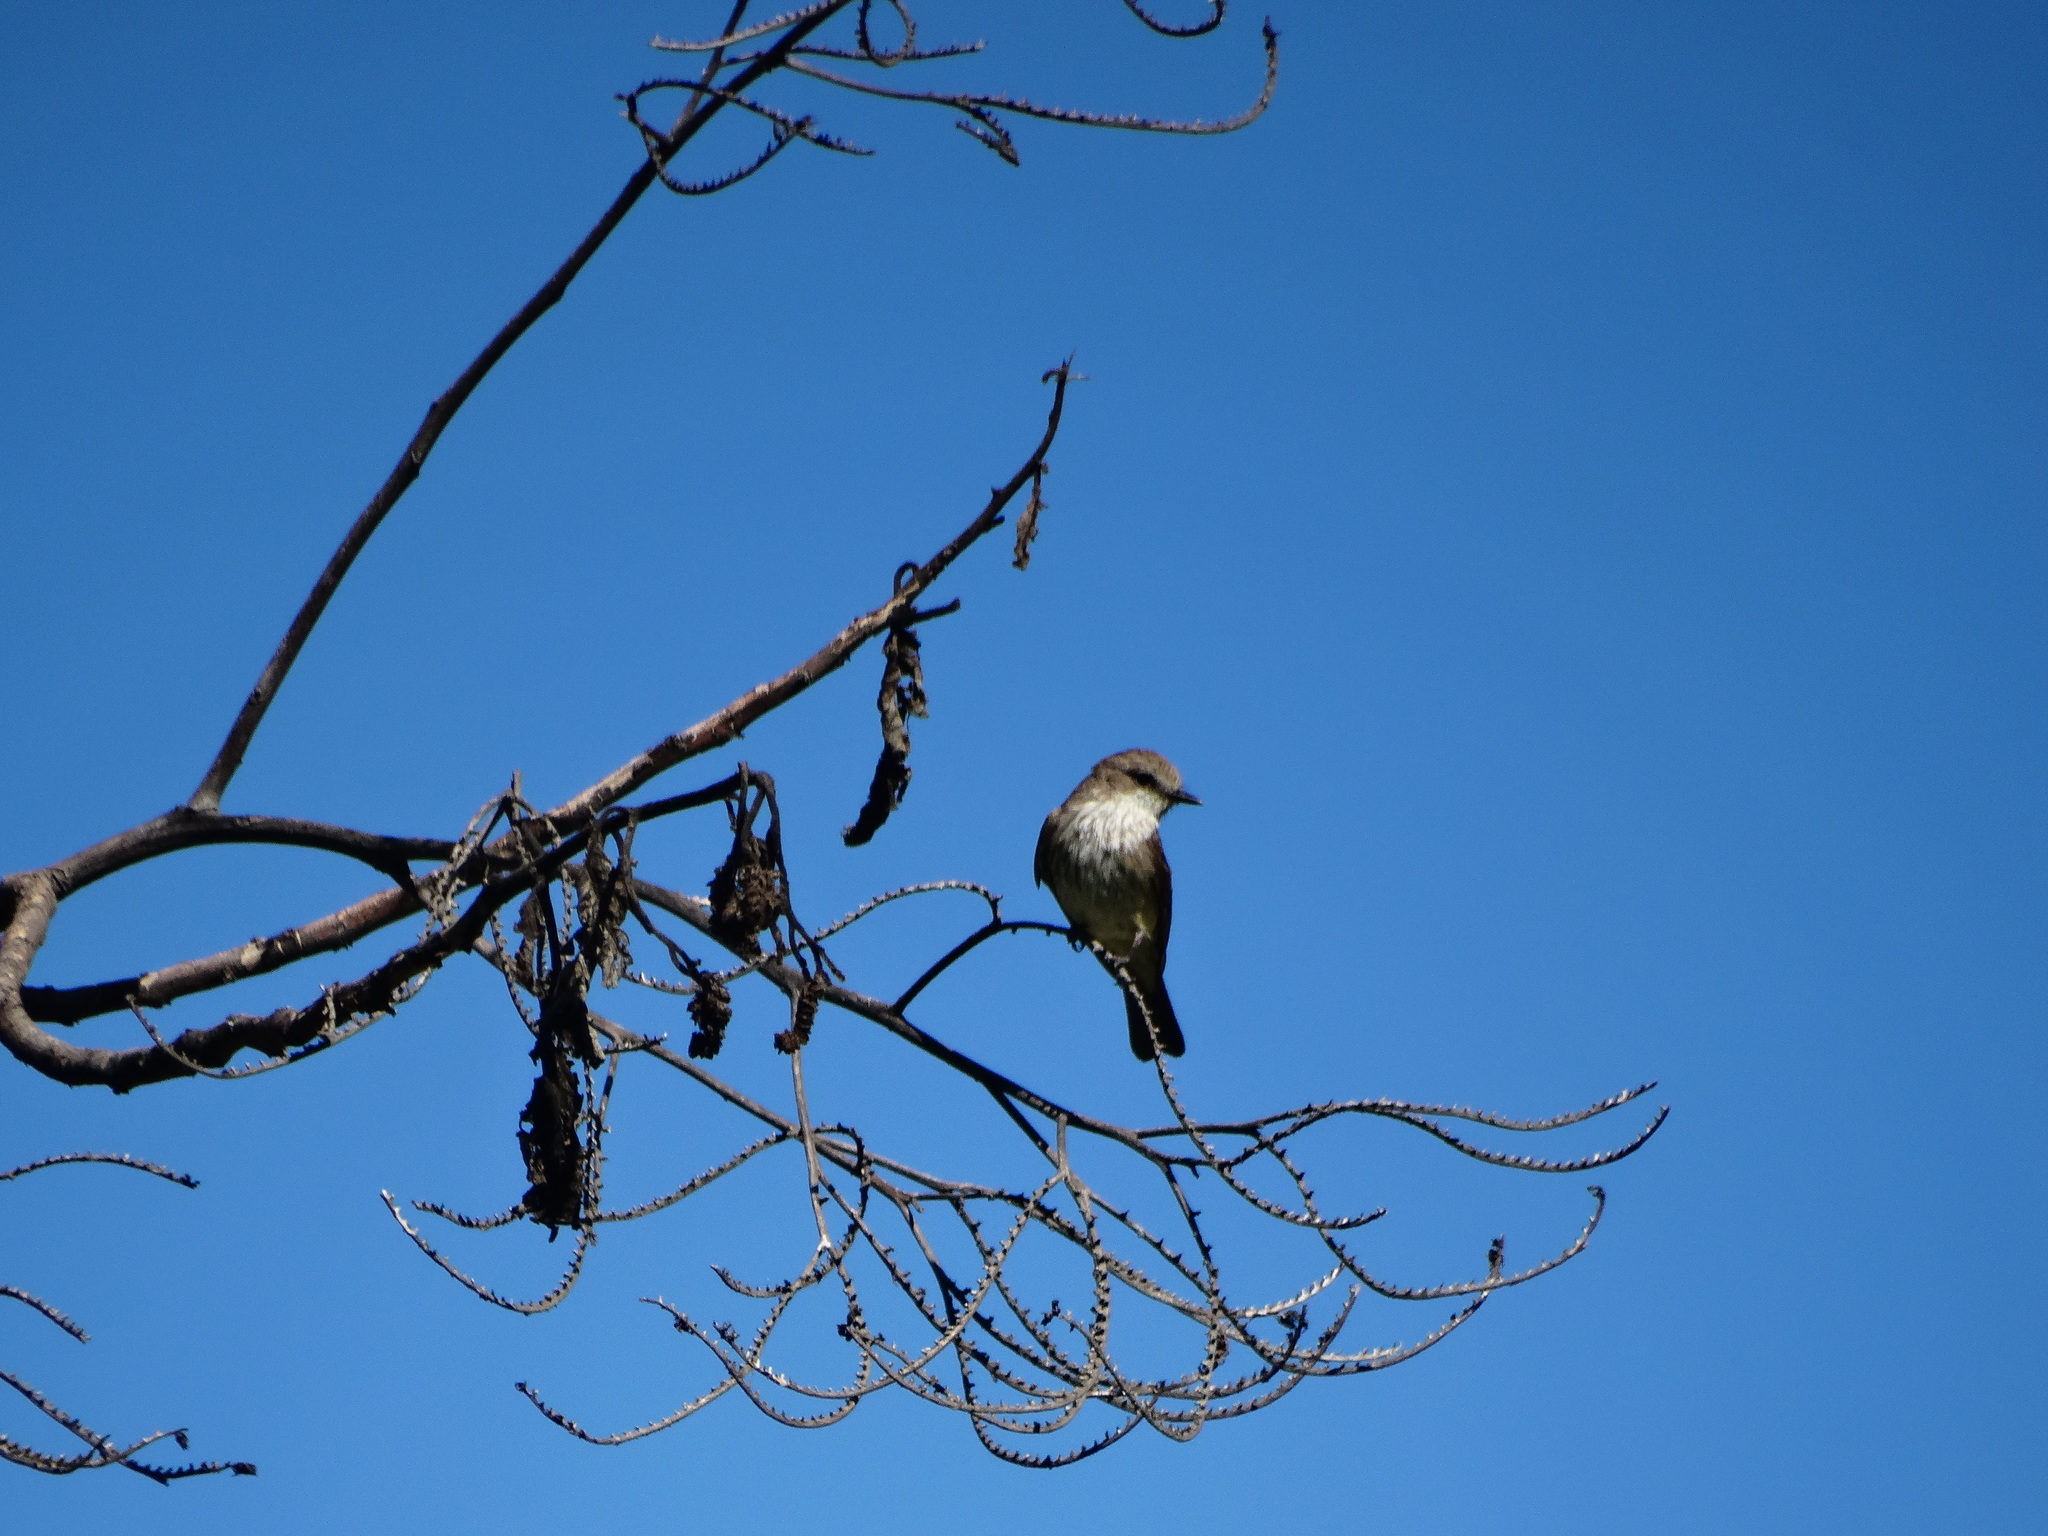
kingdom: Animalia
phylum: Chordata
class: Aves
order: Passeriformes
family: Tyrannidae
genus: Pyrocephalus
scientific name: Pyrocephalus rubinus
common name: Vermilion flycatcher
